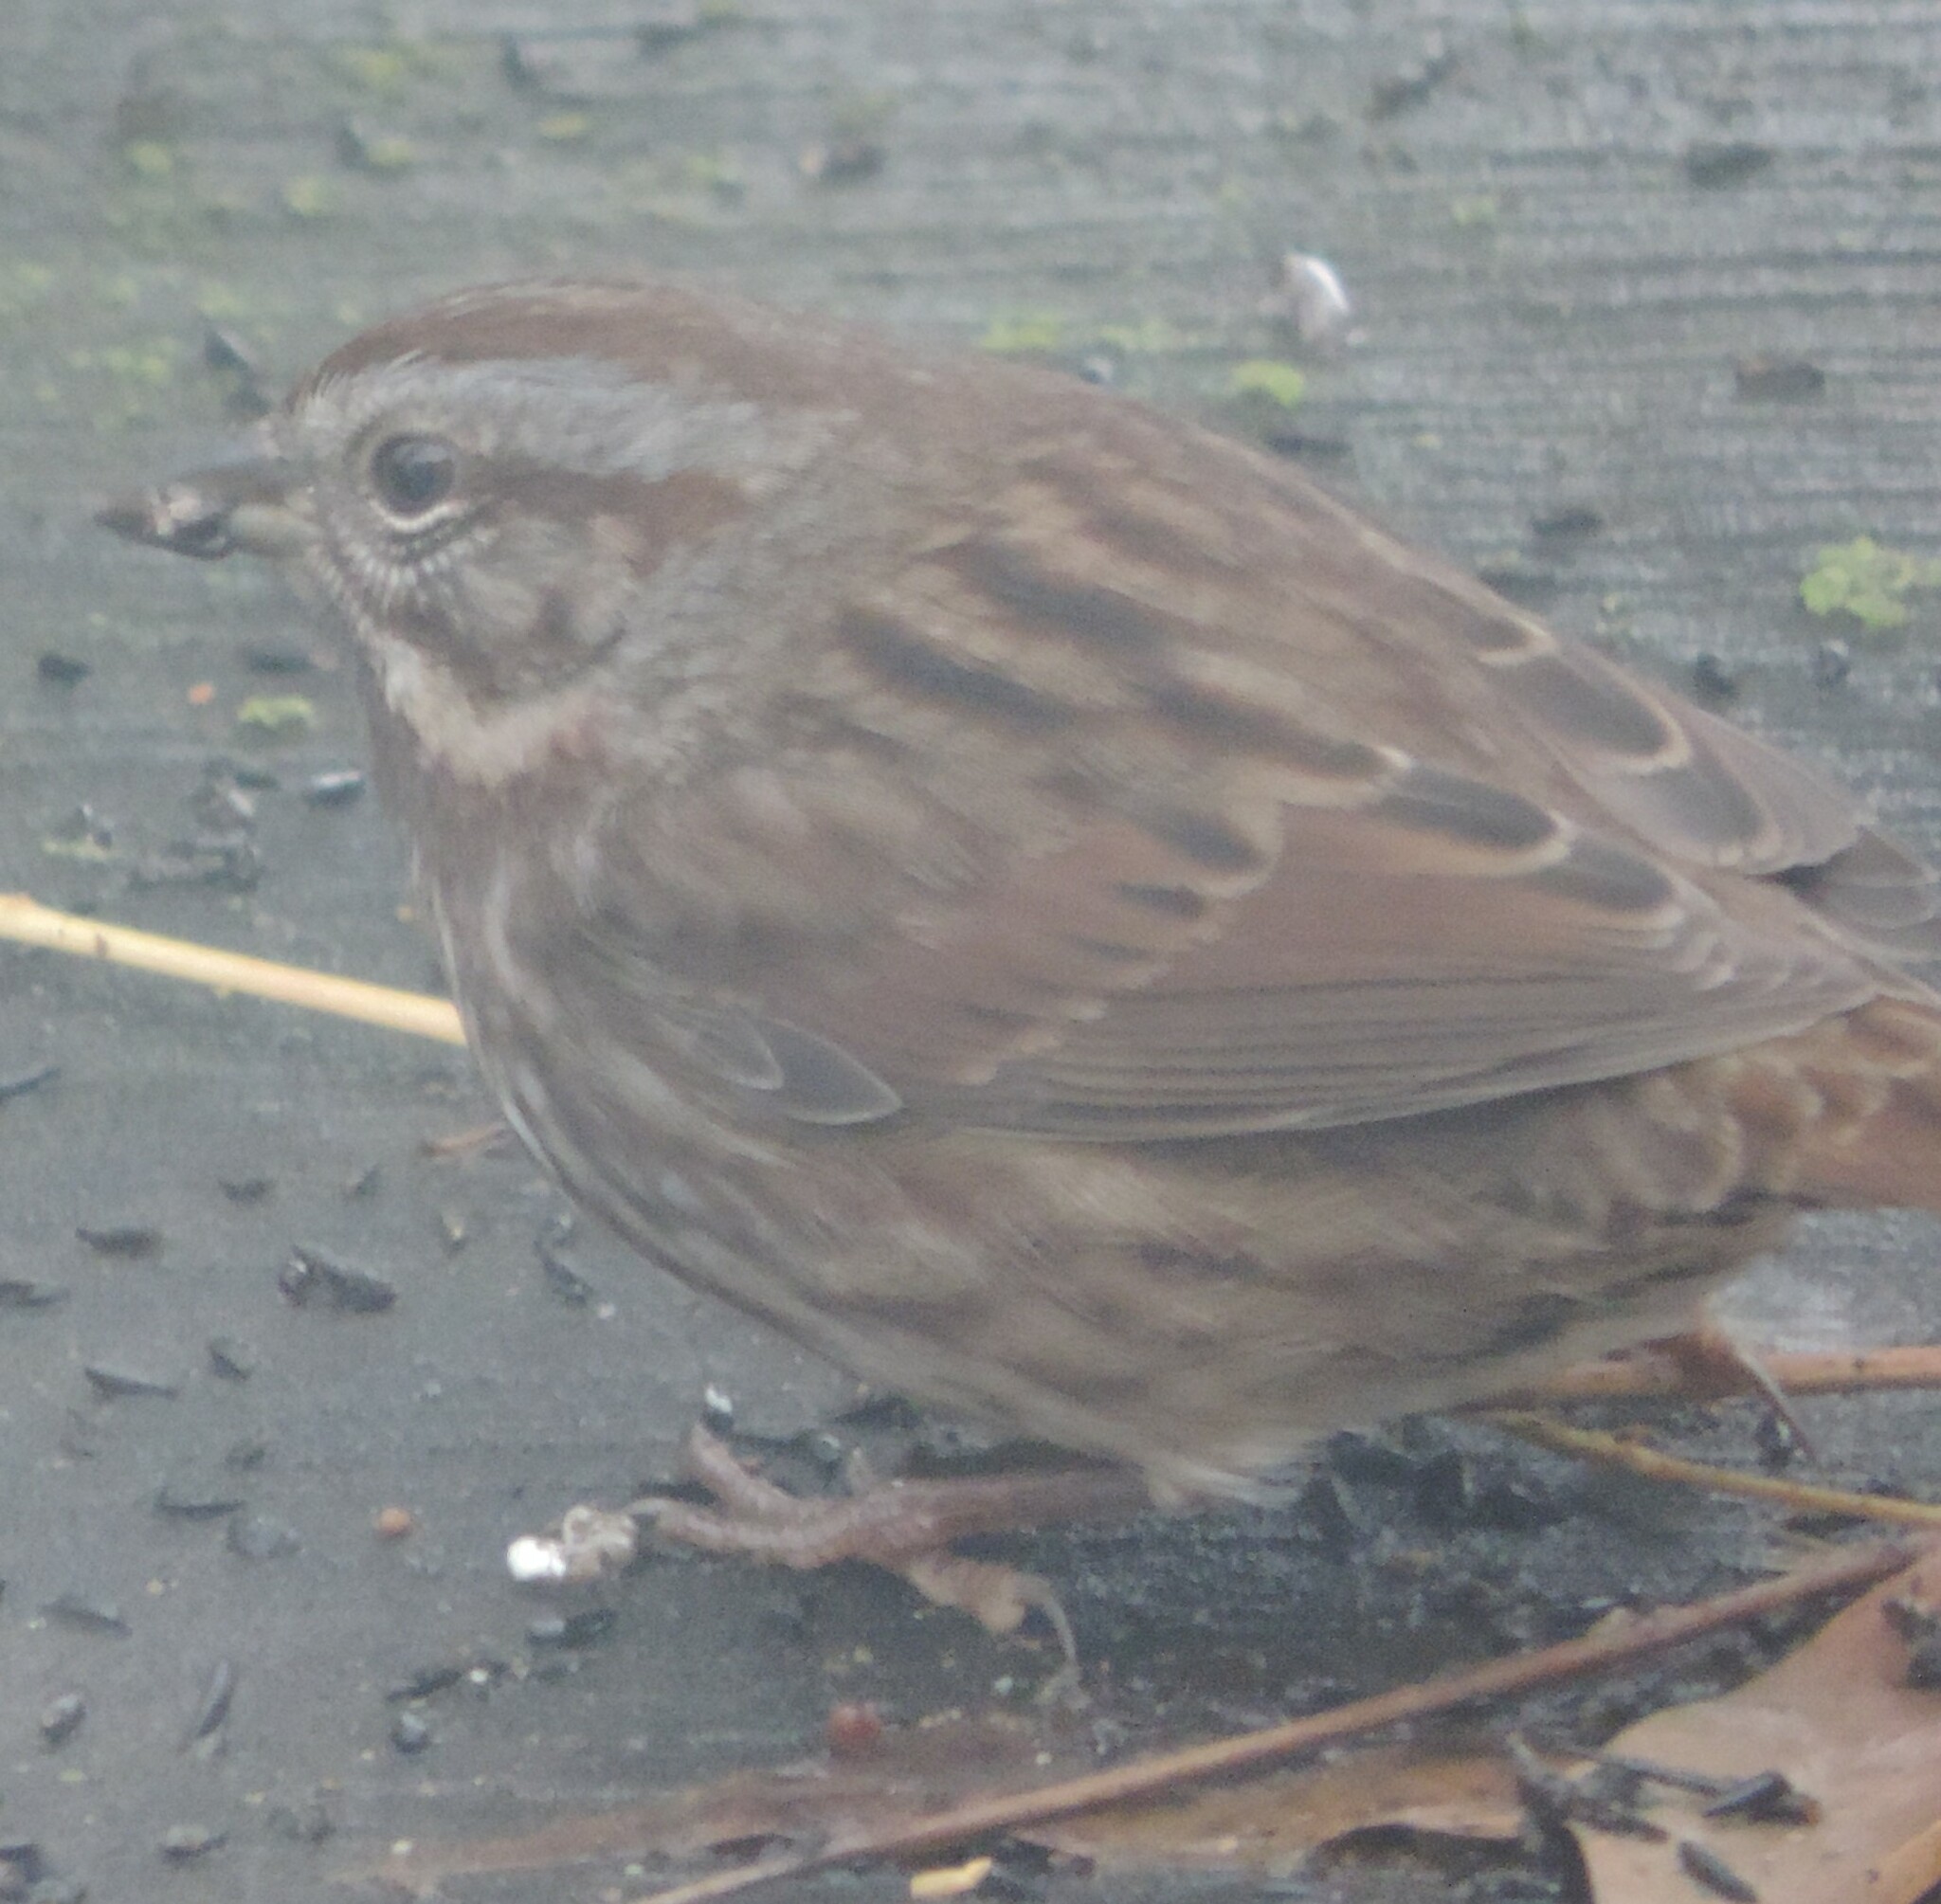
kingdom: Animalia
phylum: Chordata
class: Aves
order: Passeriformes
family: Passerellidae
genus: Melospiza
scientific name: Melospiza melodia
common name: Song sparrow
